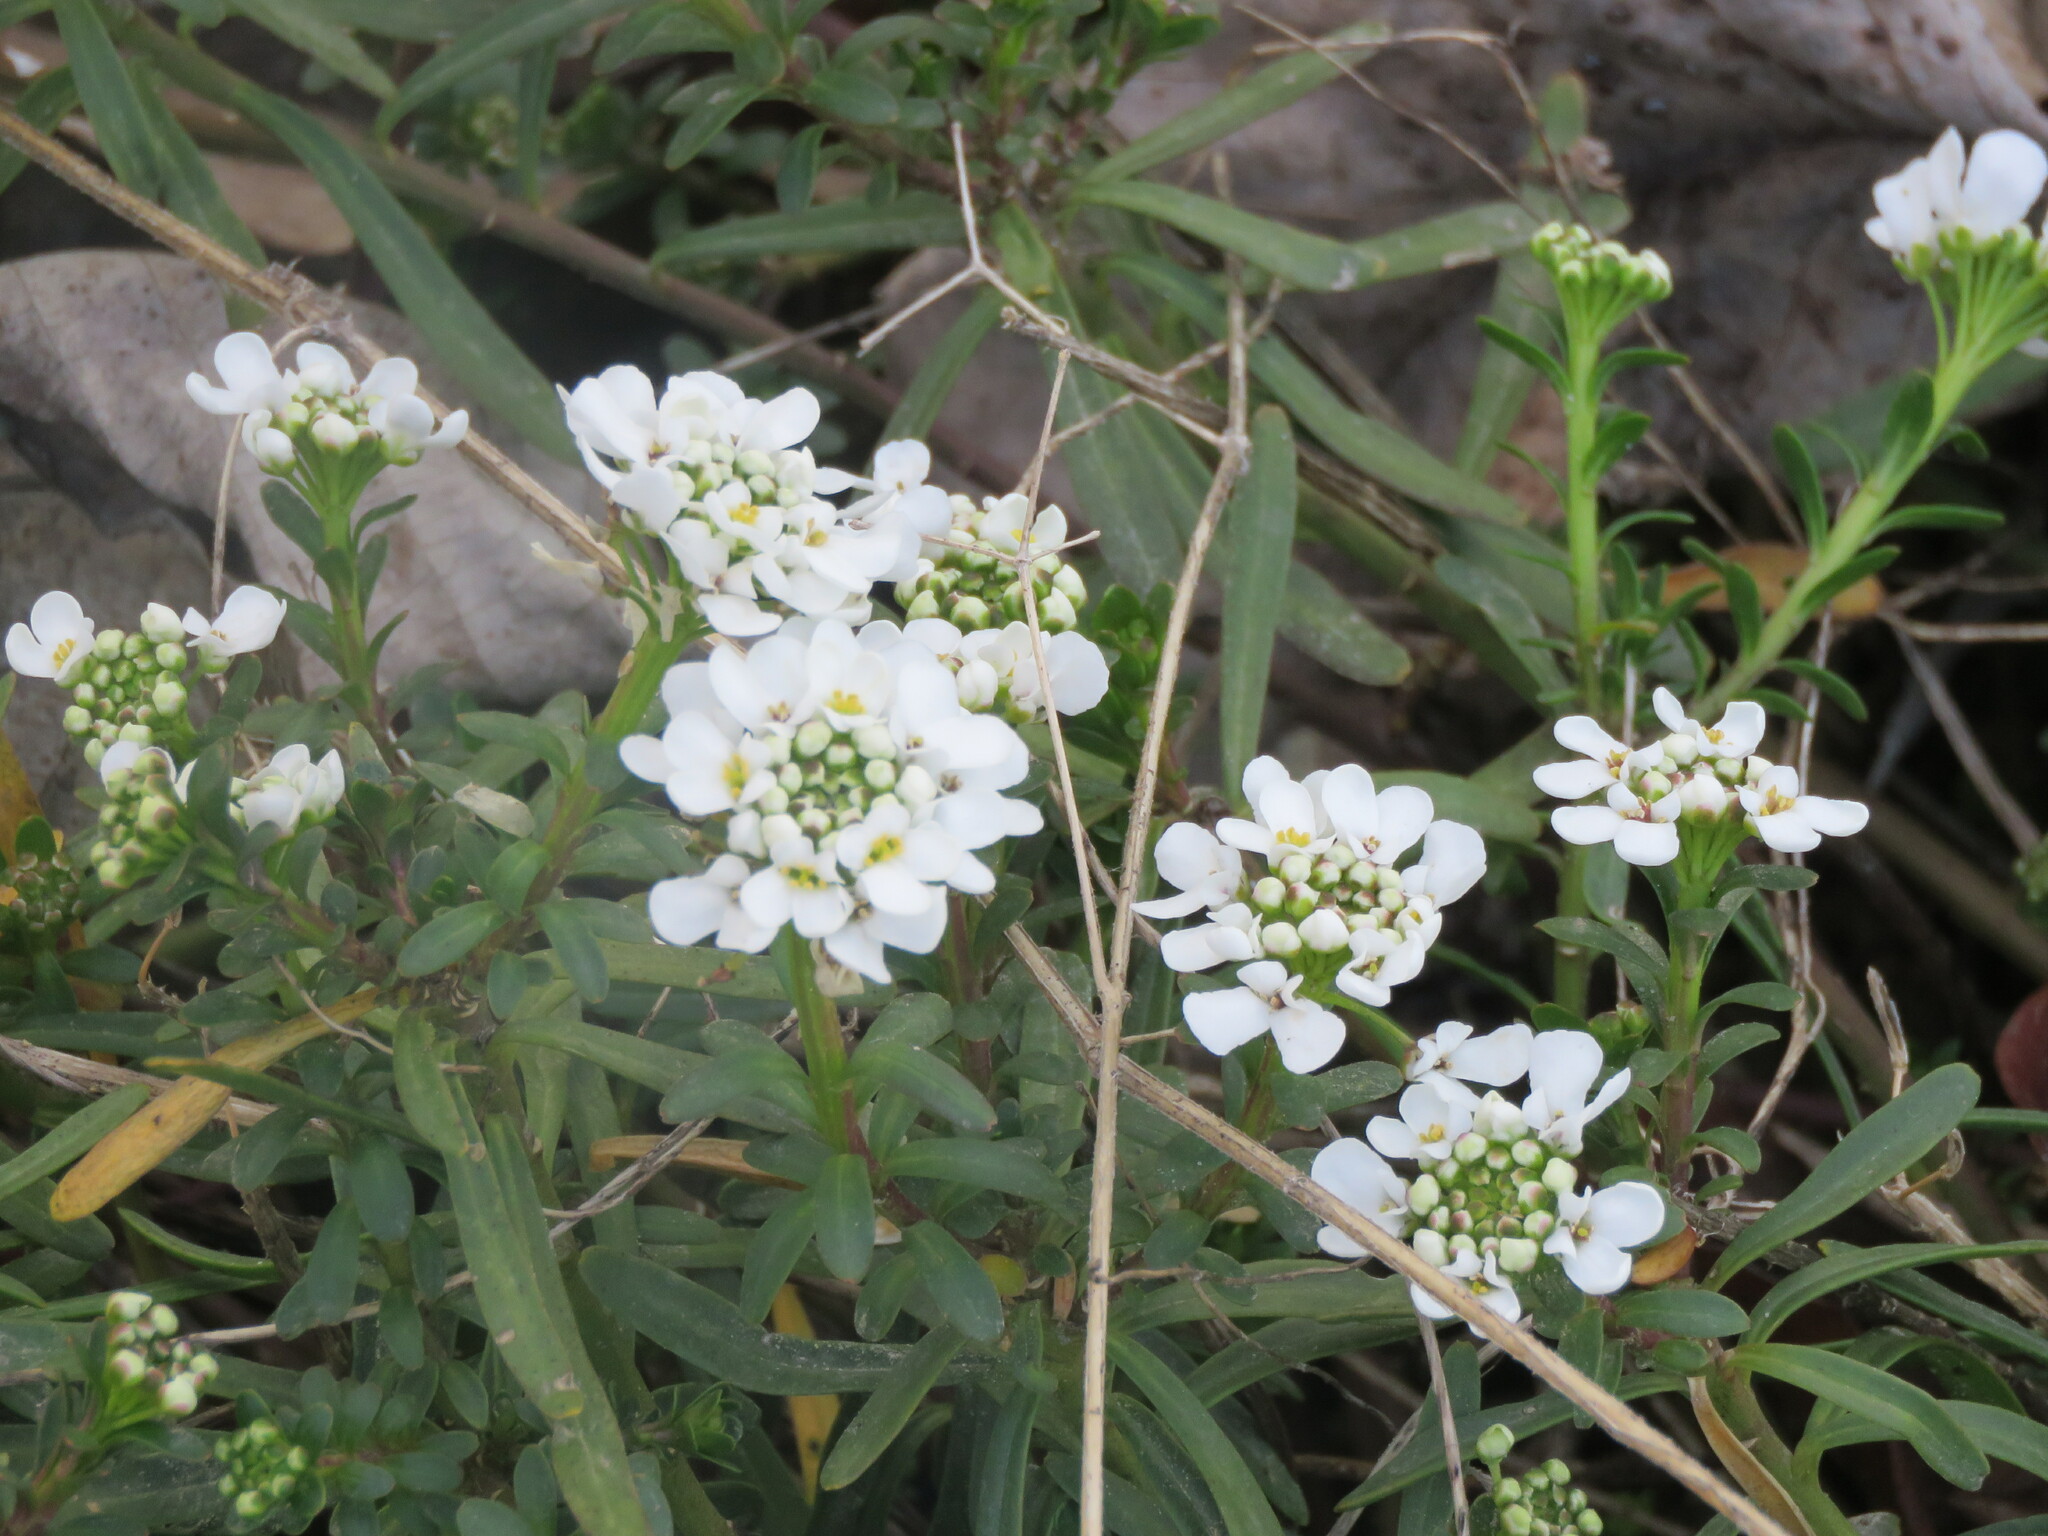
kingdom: Plantae
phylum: Tracheophyta
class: Magnoliopsida
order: Brassicales
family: Brassicaceae
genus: Lobularia
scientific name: Lobularia maritima
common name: Sweet alison
